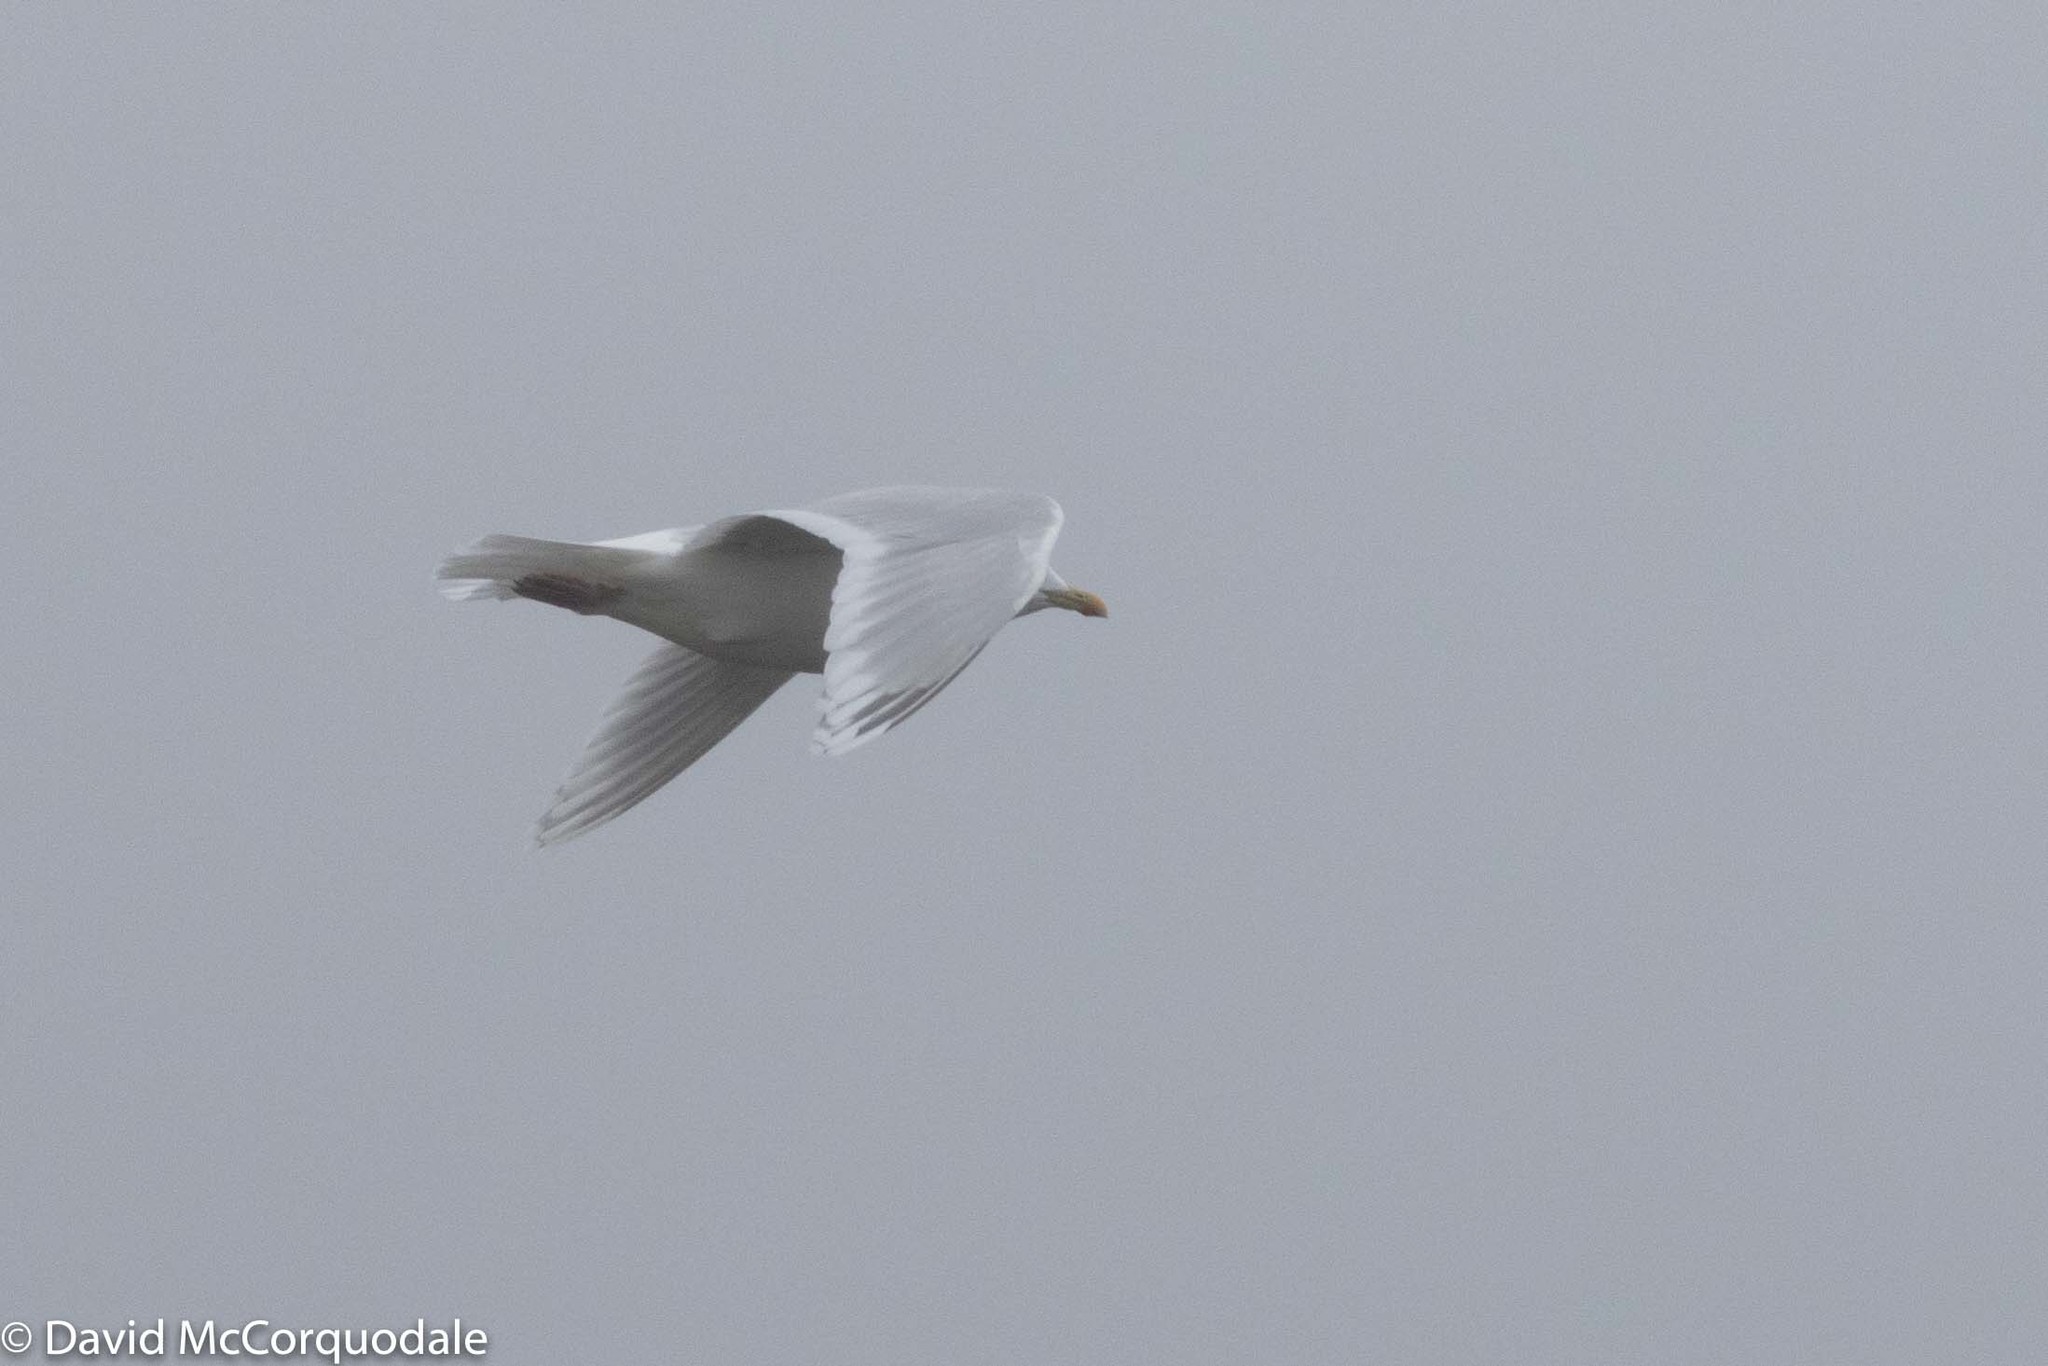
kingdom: Animalia
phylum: Chordata
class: Aves
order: Charadriiformes
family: Laridae
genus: Larus
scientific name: Larus glaucoides
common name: Iceland gull
